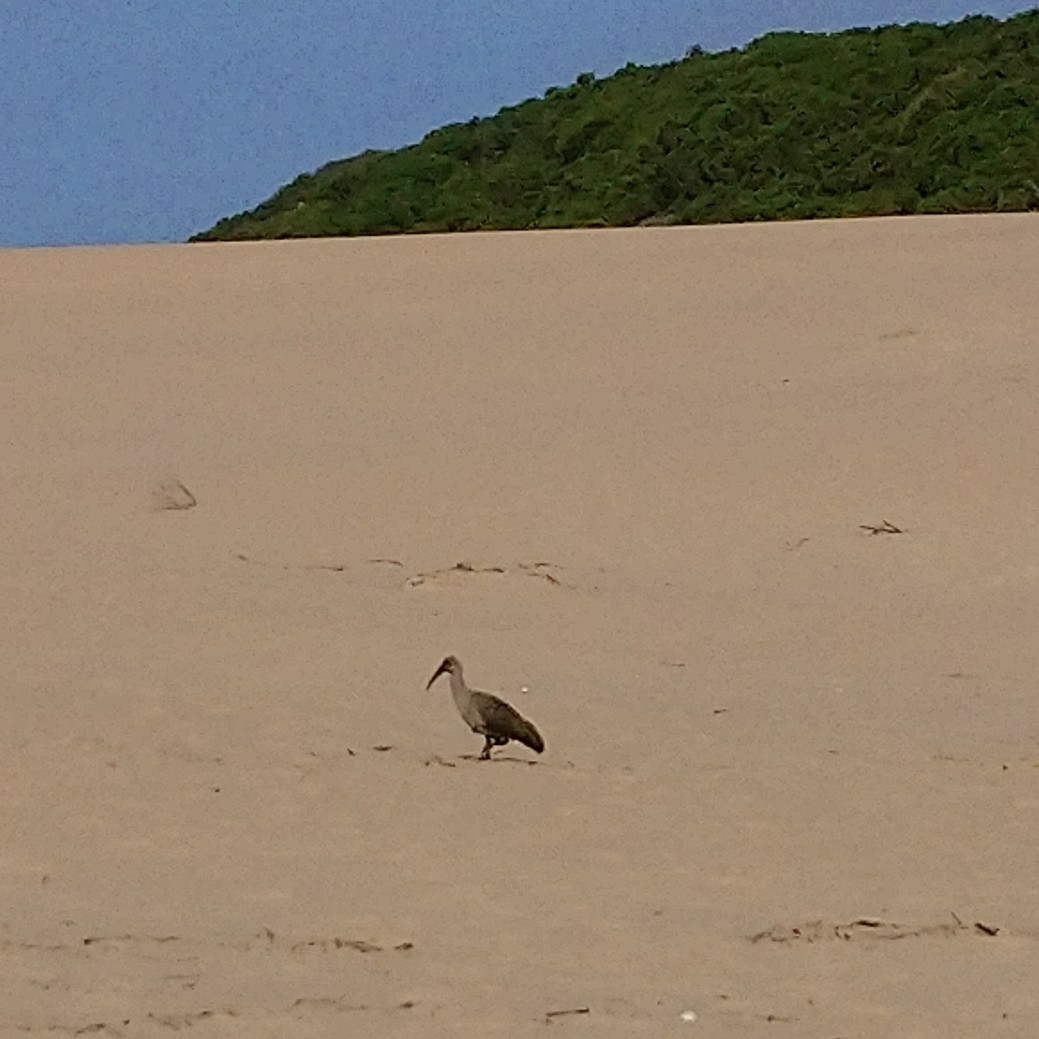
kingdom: Animalia
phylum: Chordata
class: Aves
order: Pelecaniformes
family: Threskiornithidae
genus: Bostrychia
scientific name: Bostrychia hagedash
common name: Hadada ibis
